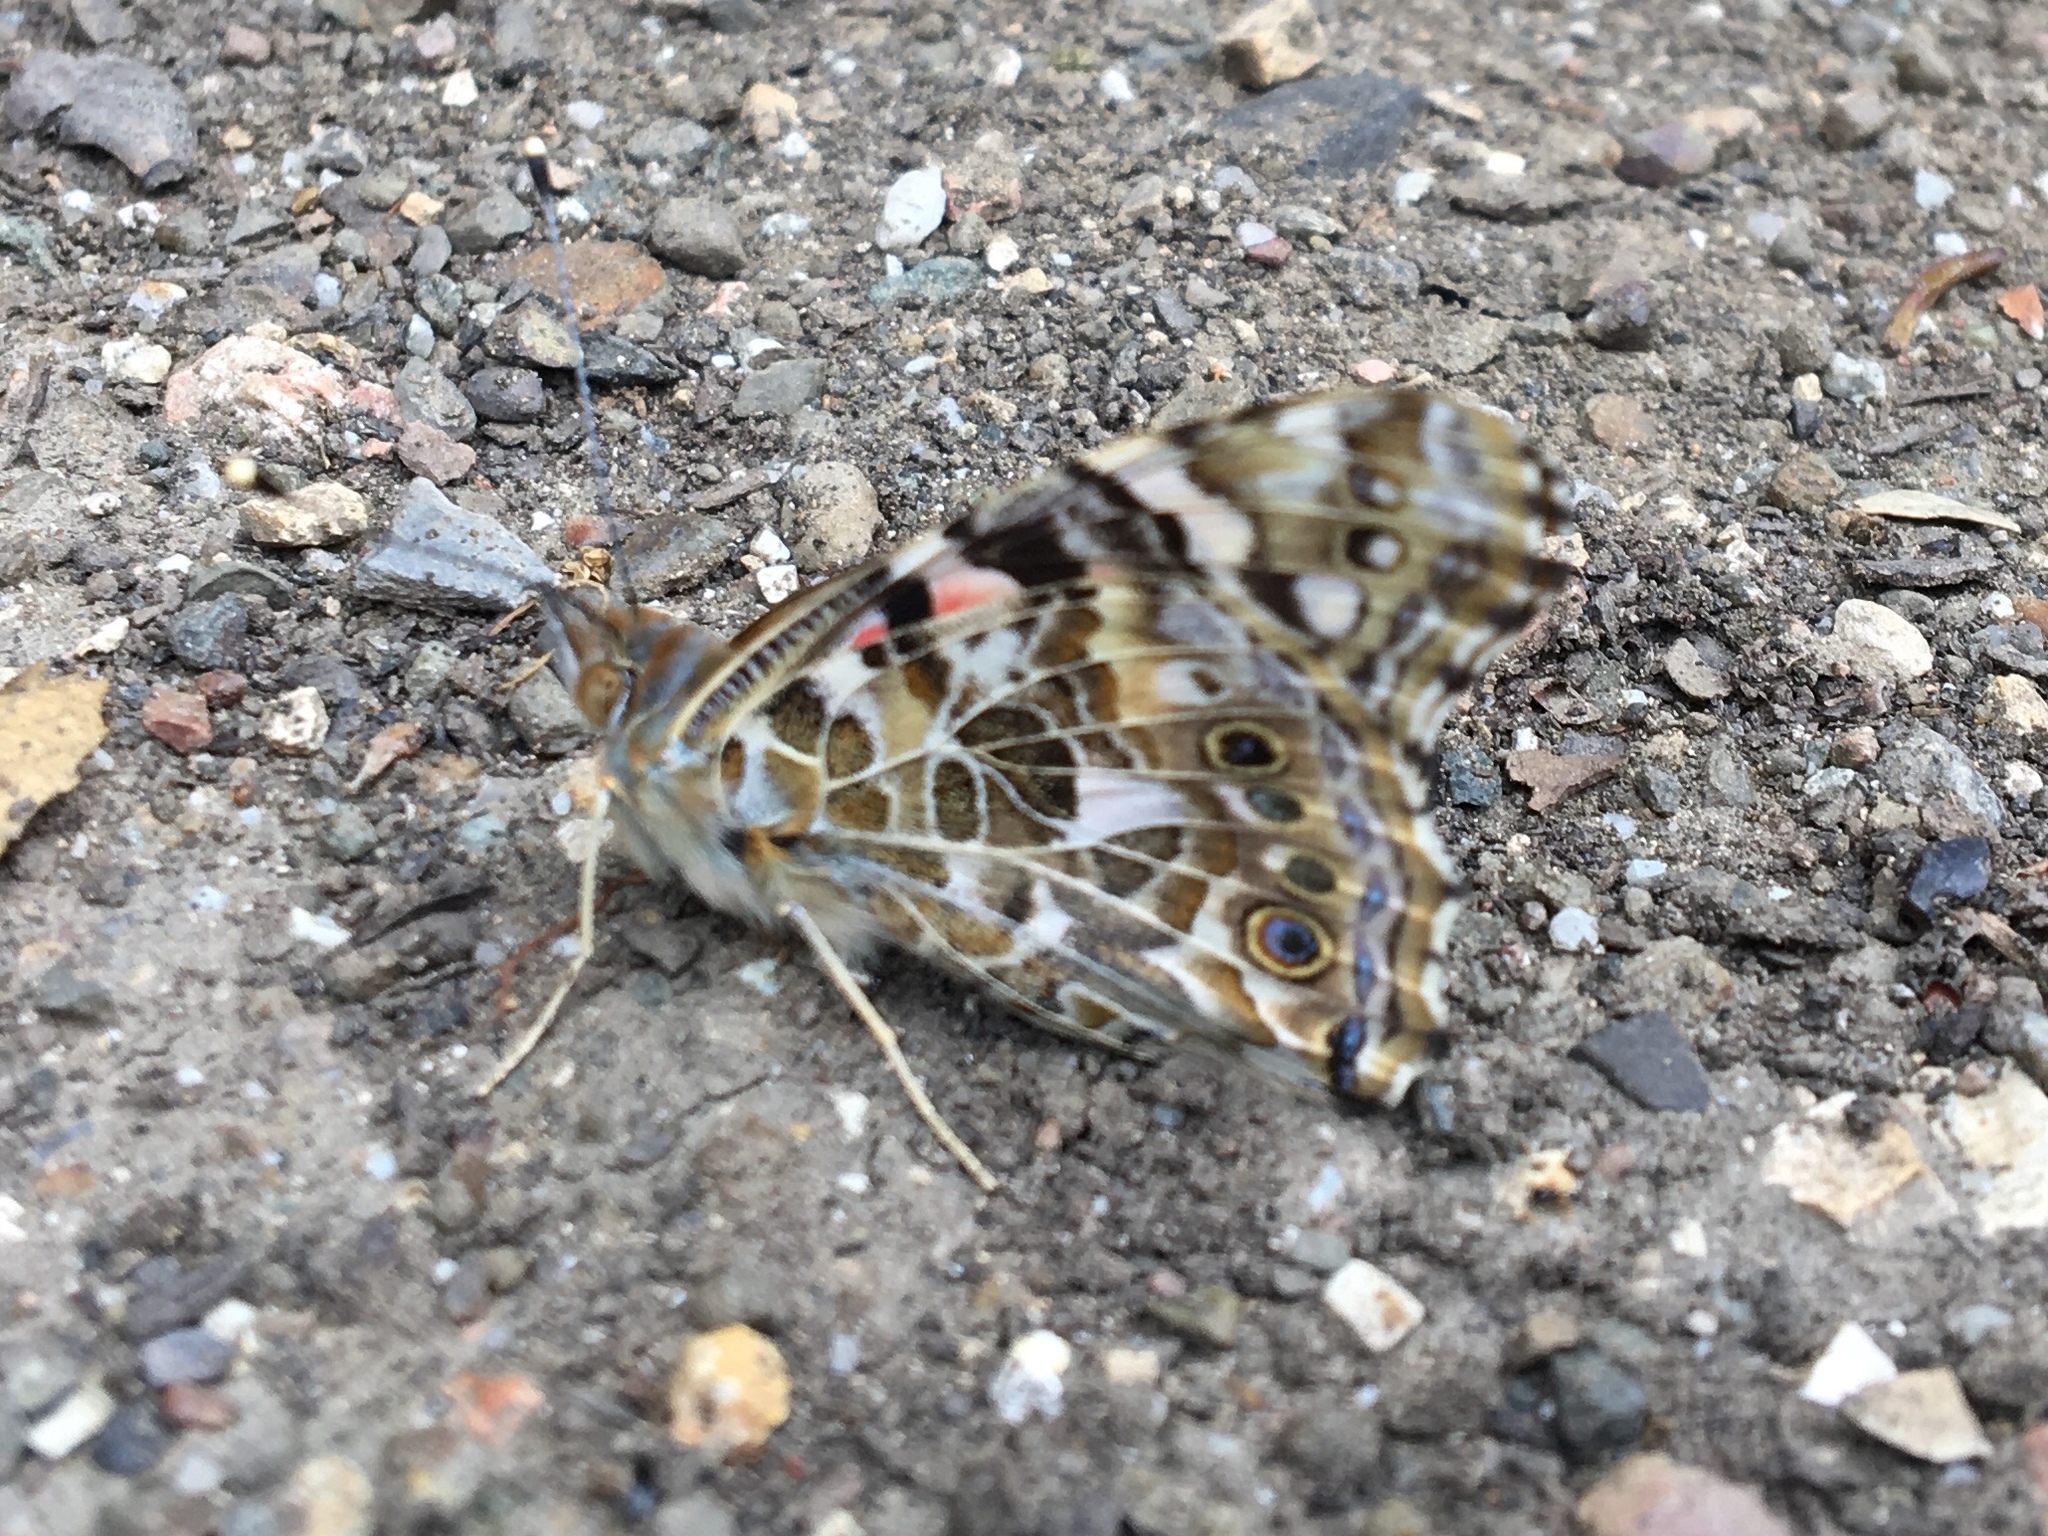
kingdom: Animalia
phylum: Arthropoda
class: Insecta
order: Lepidoptera
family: Nymphalidae
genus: Vanessa
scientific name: Vanessa cardui
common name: Painted lady
